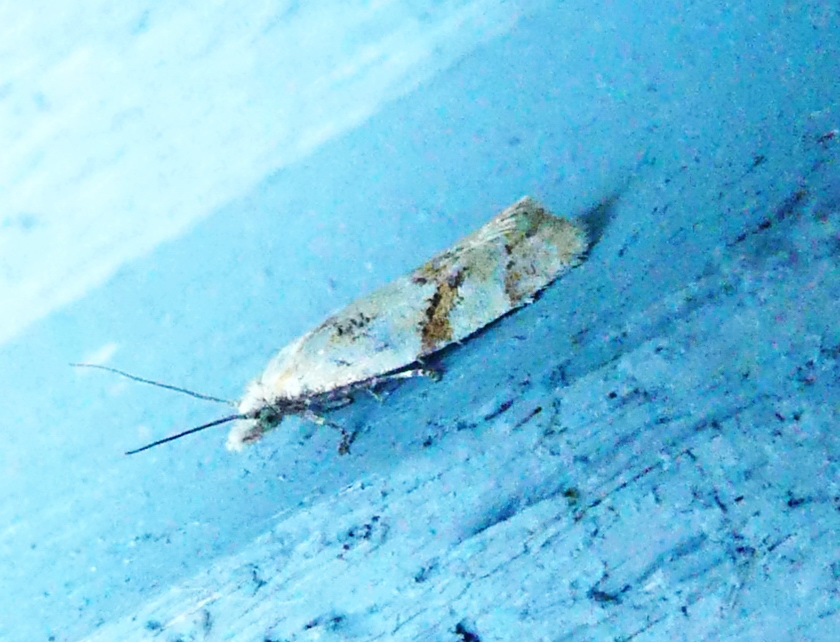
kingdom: Animalia
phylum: Arthropoda
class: Insecta
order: Lepidoptera
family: Tortricidae
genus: Phtheochroa
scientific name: Phtheochroa vitellinana
